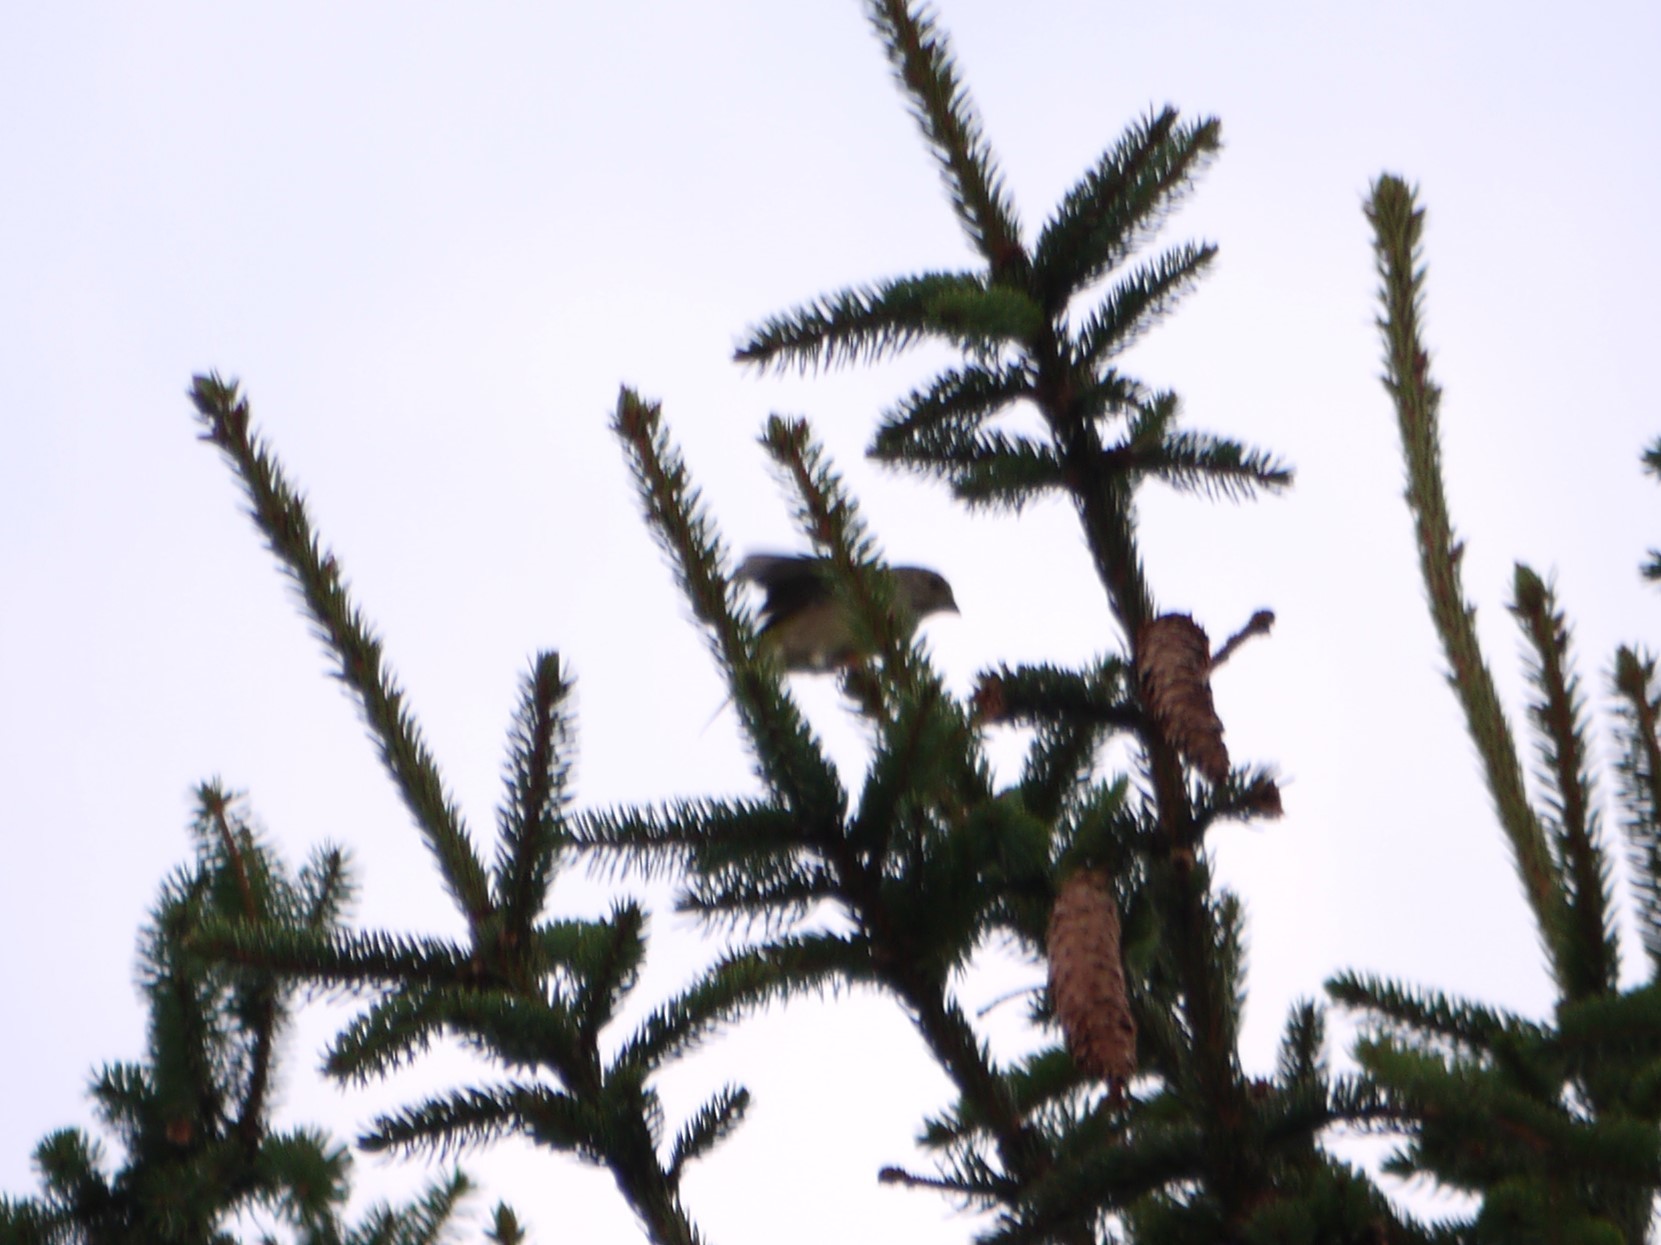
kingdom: Animalia
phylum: Chordata
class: Aves
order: Passeriformes
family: Fringillidae
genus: Linaria
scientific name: Linaria cannabina
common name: Common linnet
